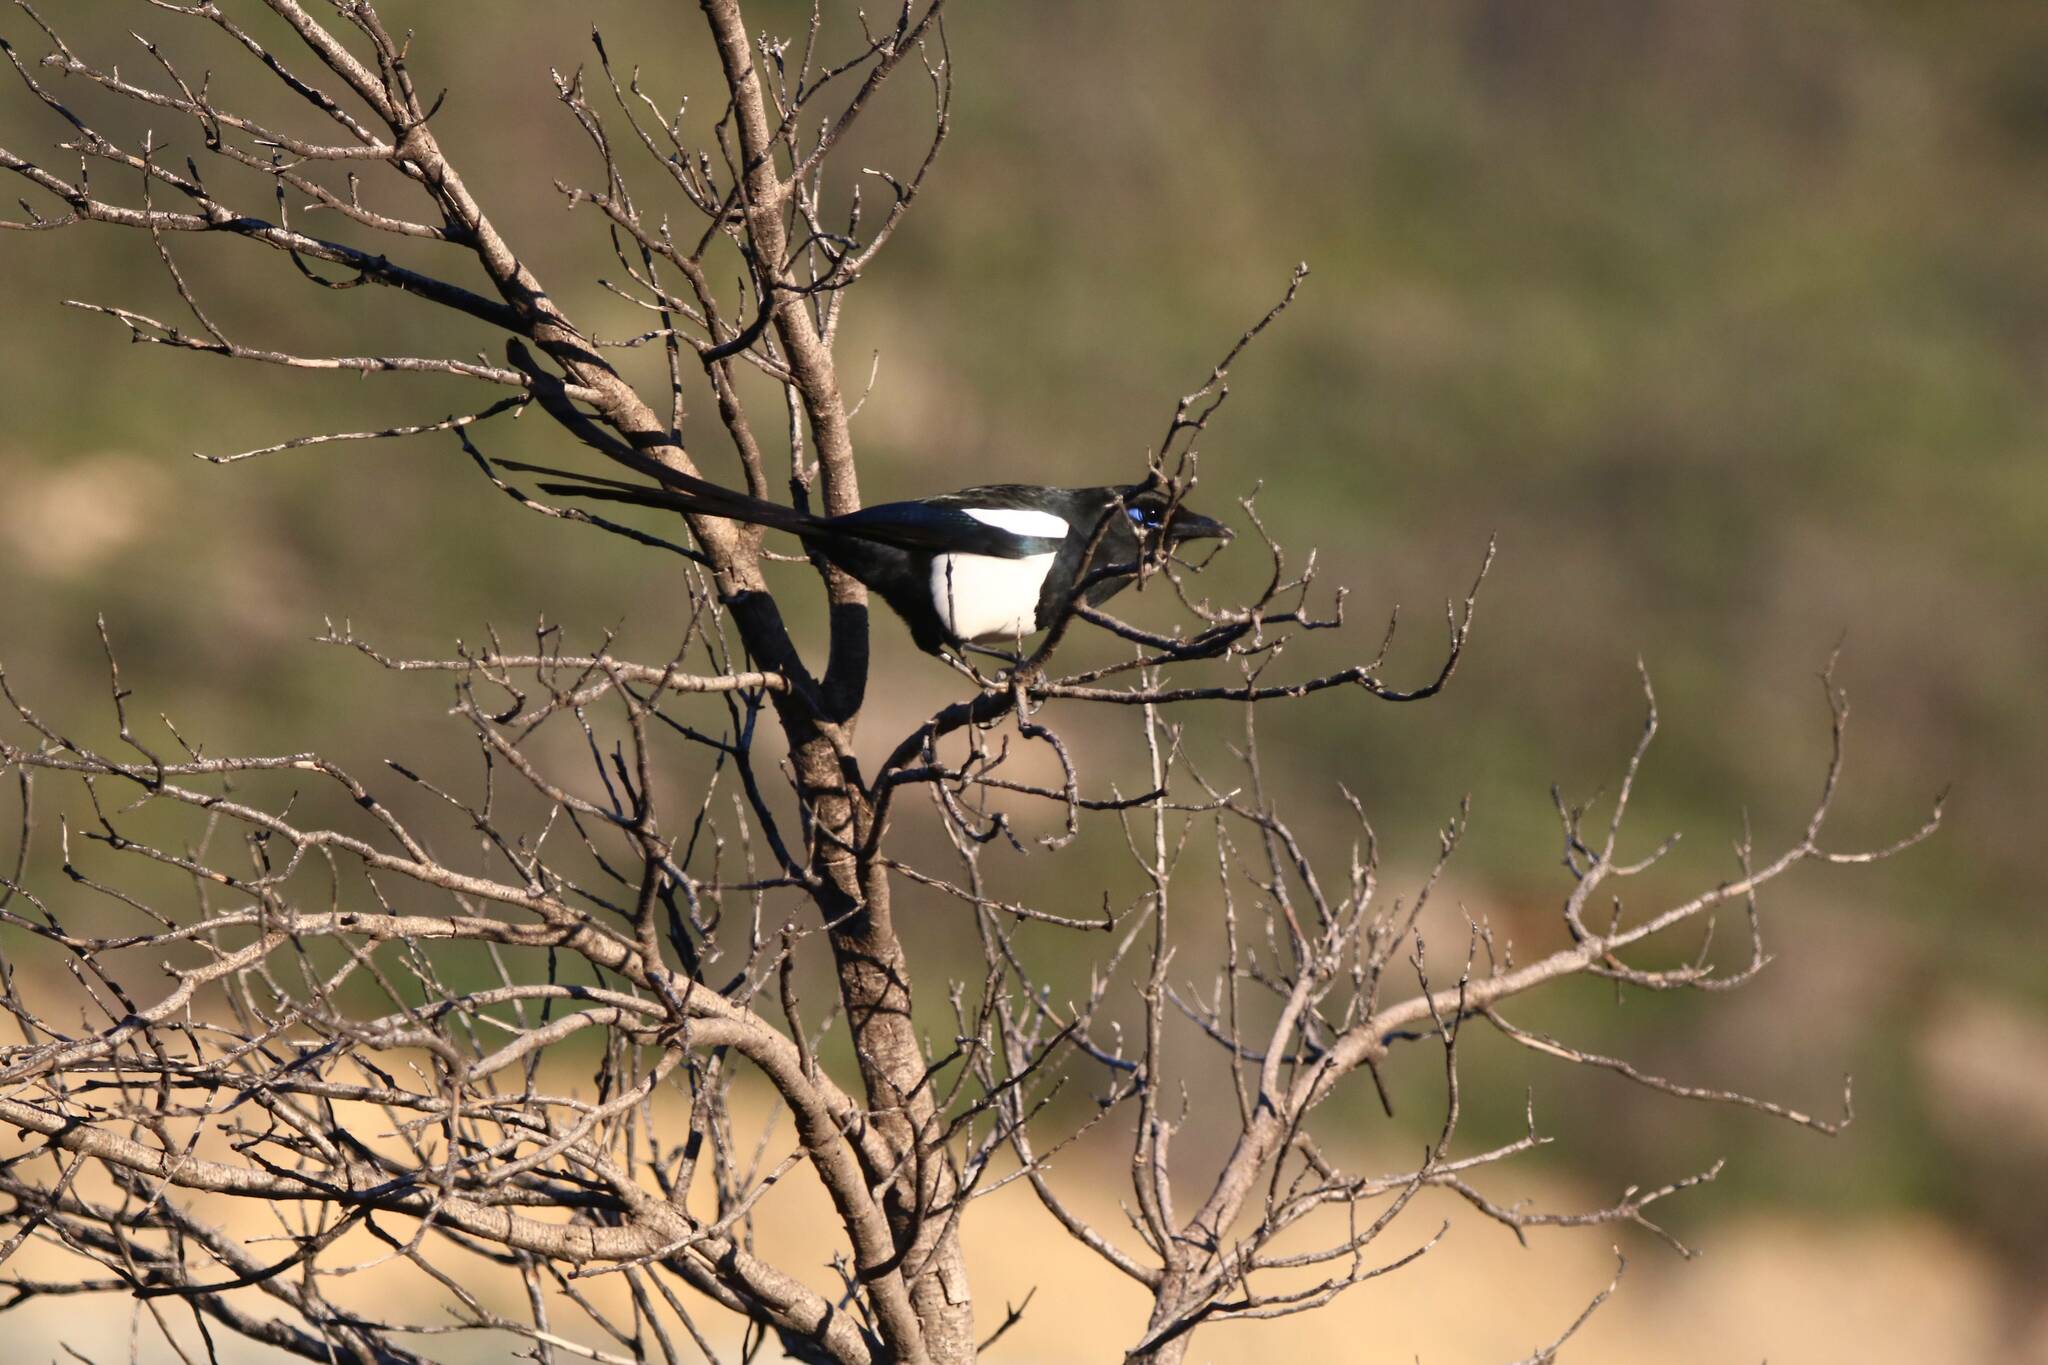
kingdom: Animalia
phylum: Chordata
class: Aves
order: Passeriformes
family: Corvidae
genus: Pica
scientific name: Pica mauritanica
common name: Maghreb magpie
